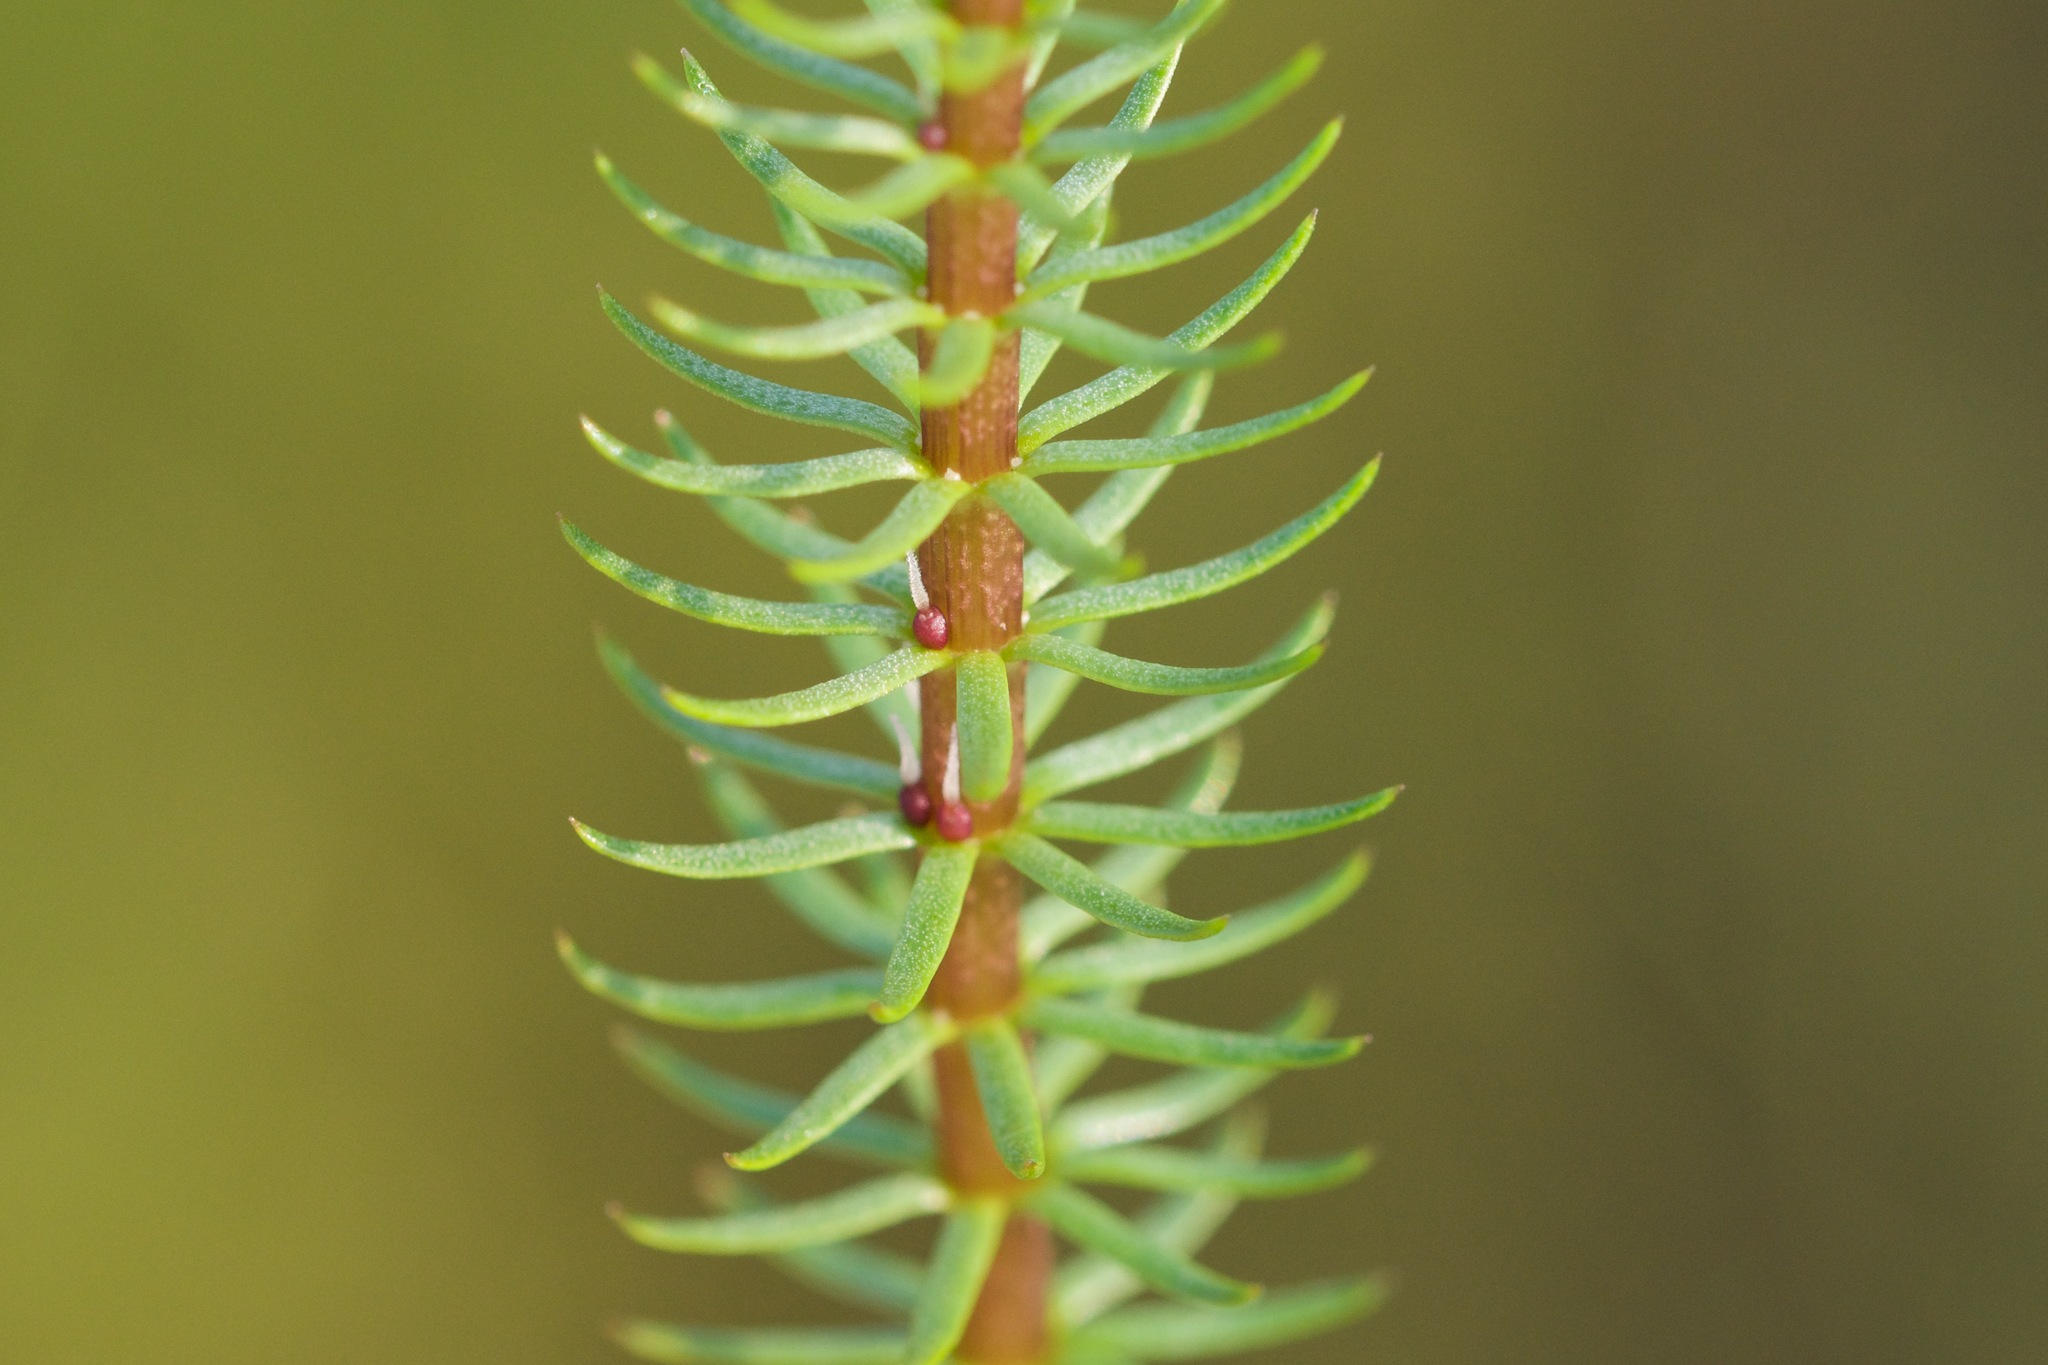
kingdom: Plantae
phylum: Tracheophyta
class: Magnoliopsida
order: Lamiales
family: Plantaginaceae
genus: Hippuris
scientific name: Hippuris vulgaris
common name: Mare's-tail
